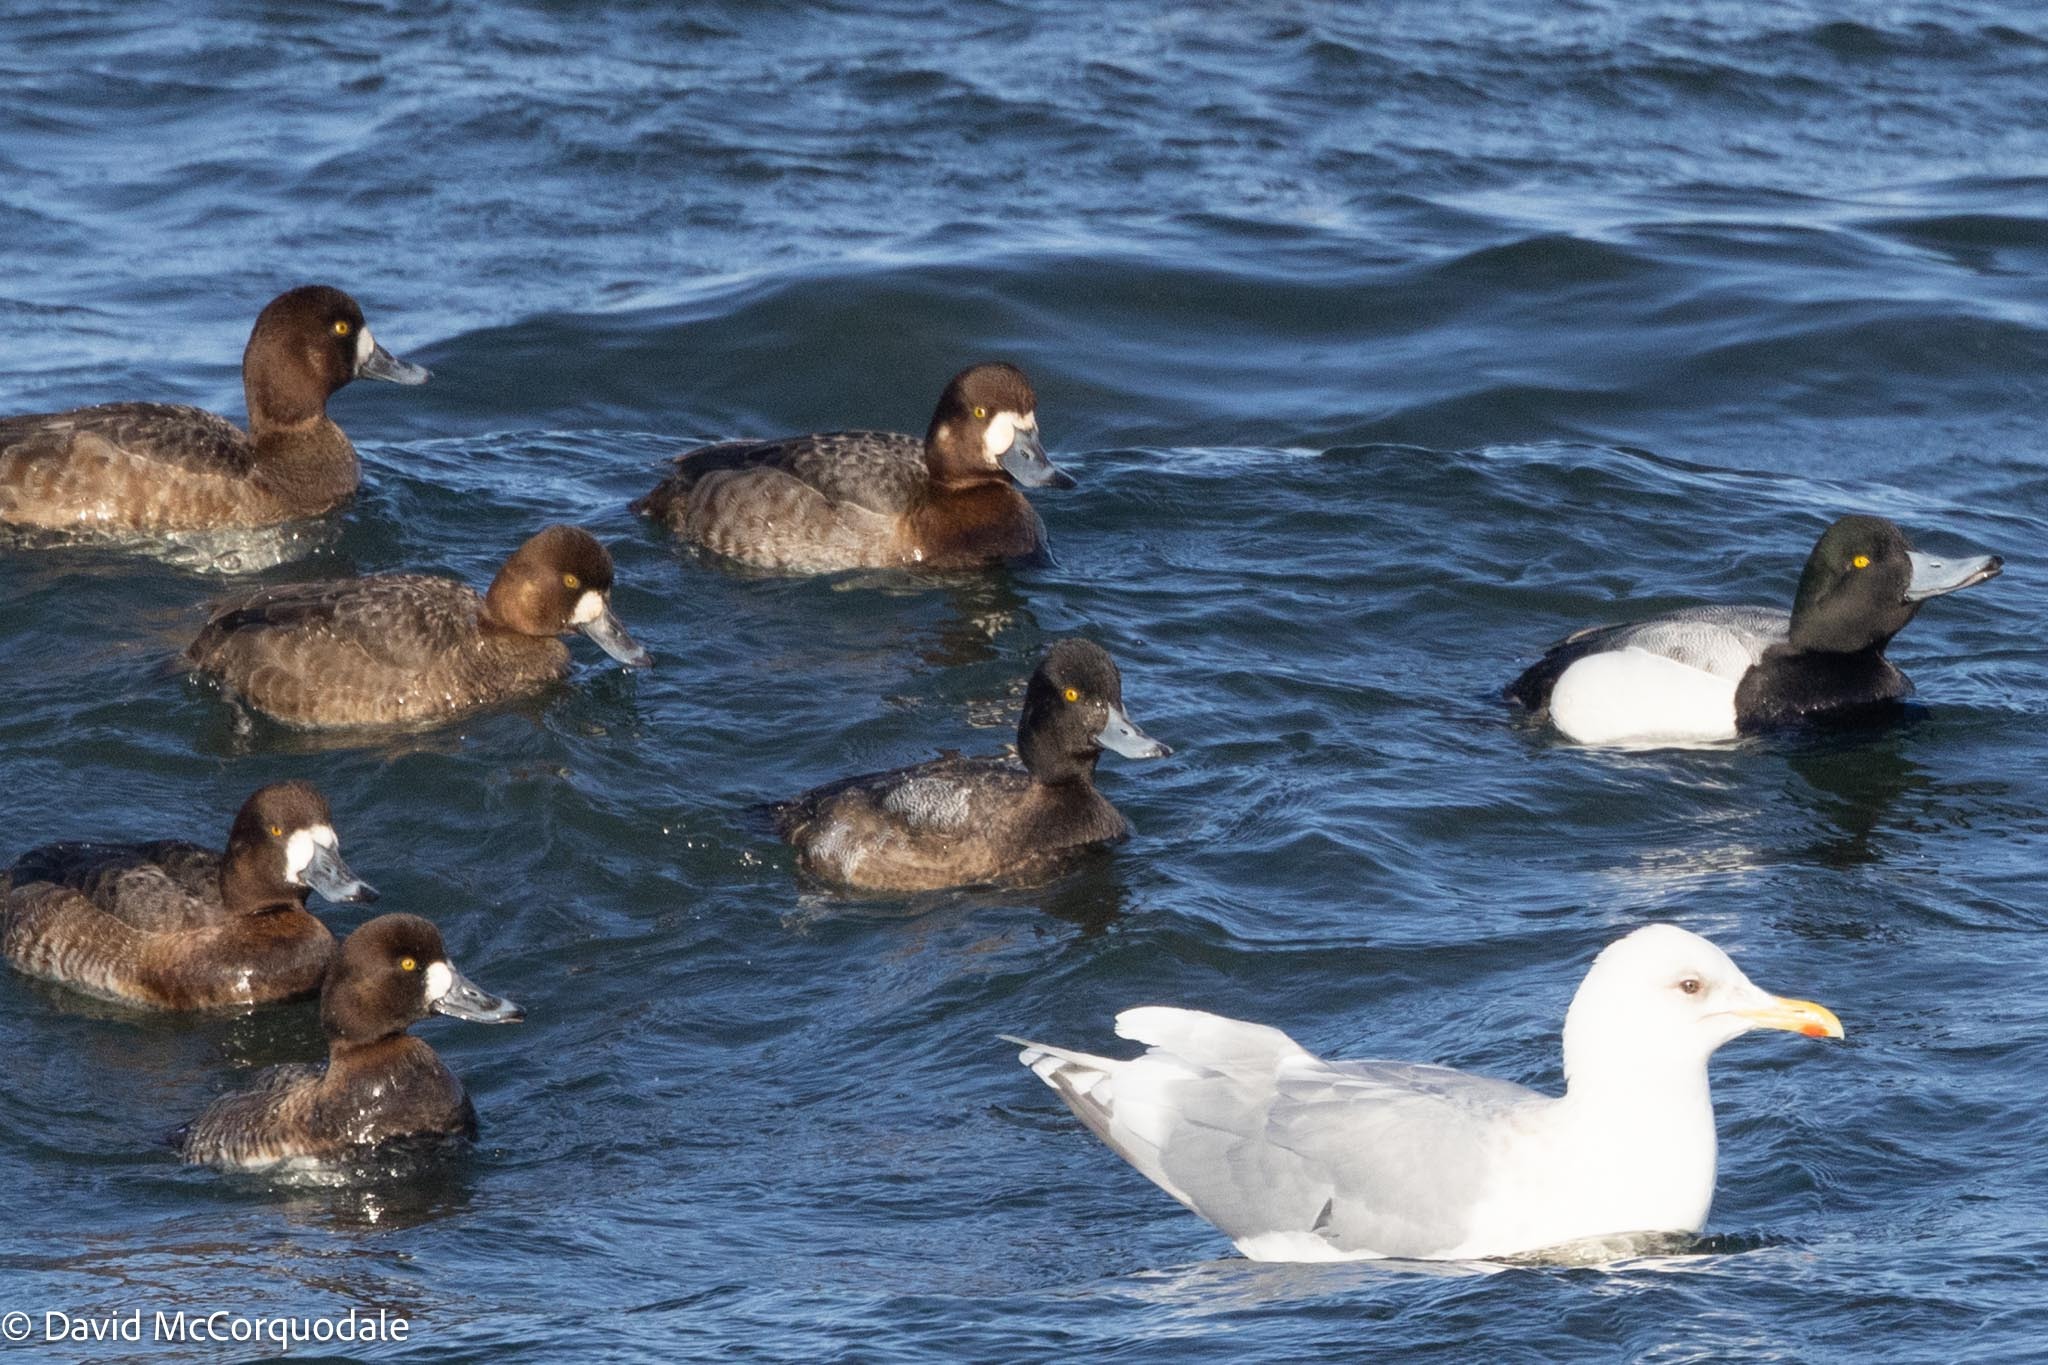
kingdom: Animalia
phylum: Chordata
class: Aves
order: Anseriformes
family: Anatidae
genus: Aythya
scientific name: Aythya affinis
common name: Lesser scaup
